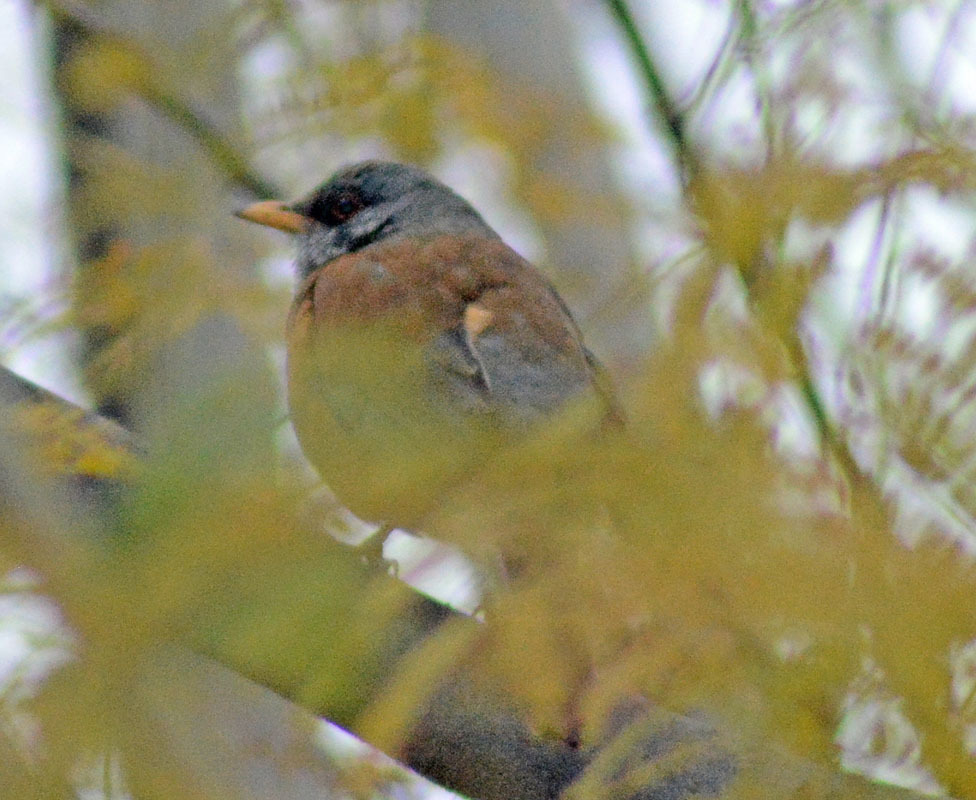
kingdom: Animalia
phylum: Chordata
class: Aves
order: Passeriformes
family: Turdidae
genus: Turdus
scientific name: Turdus rufopalliatus
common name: Rufous-backed robin
